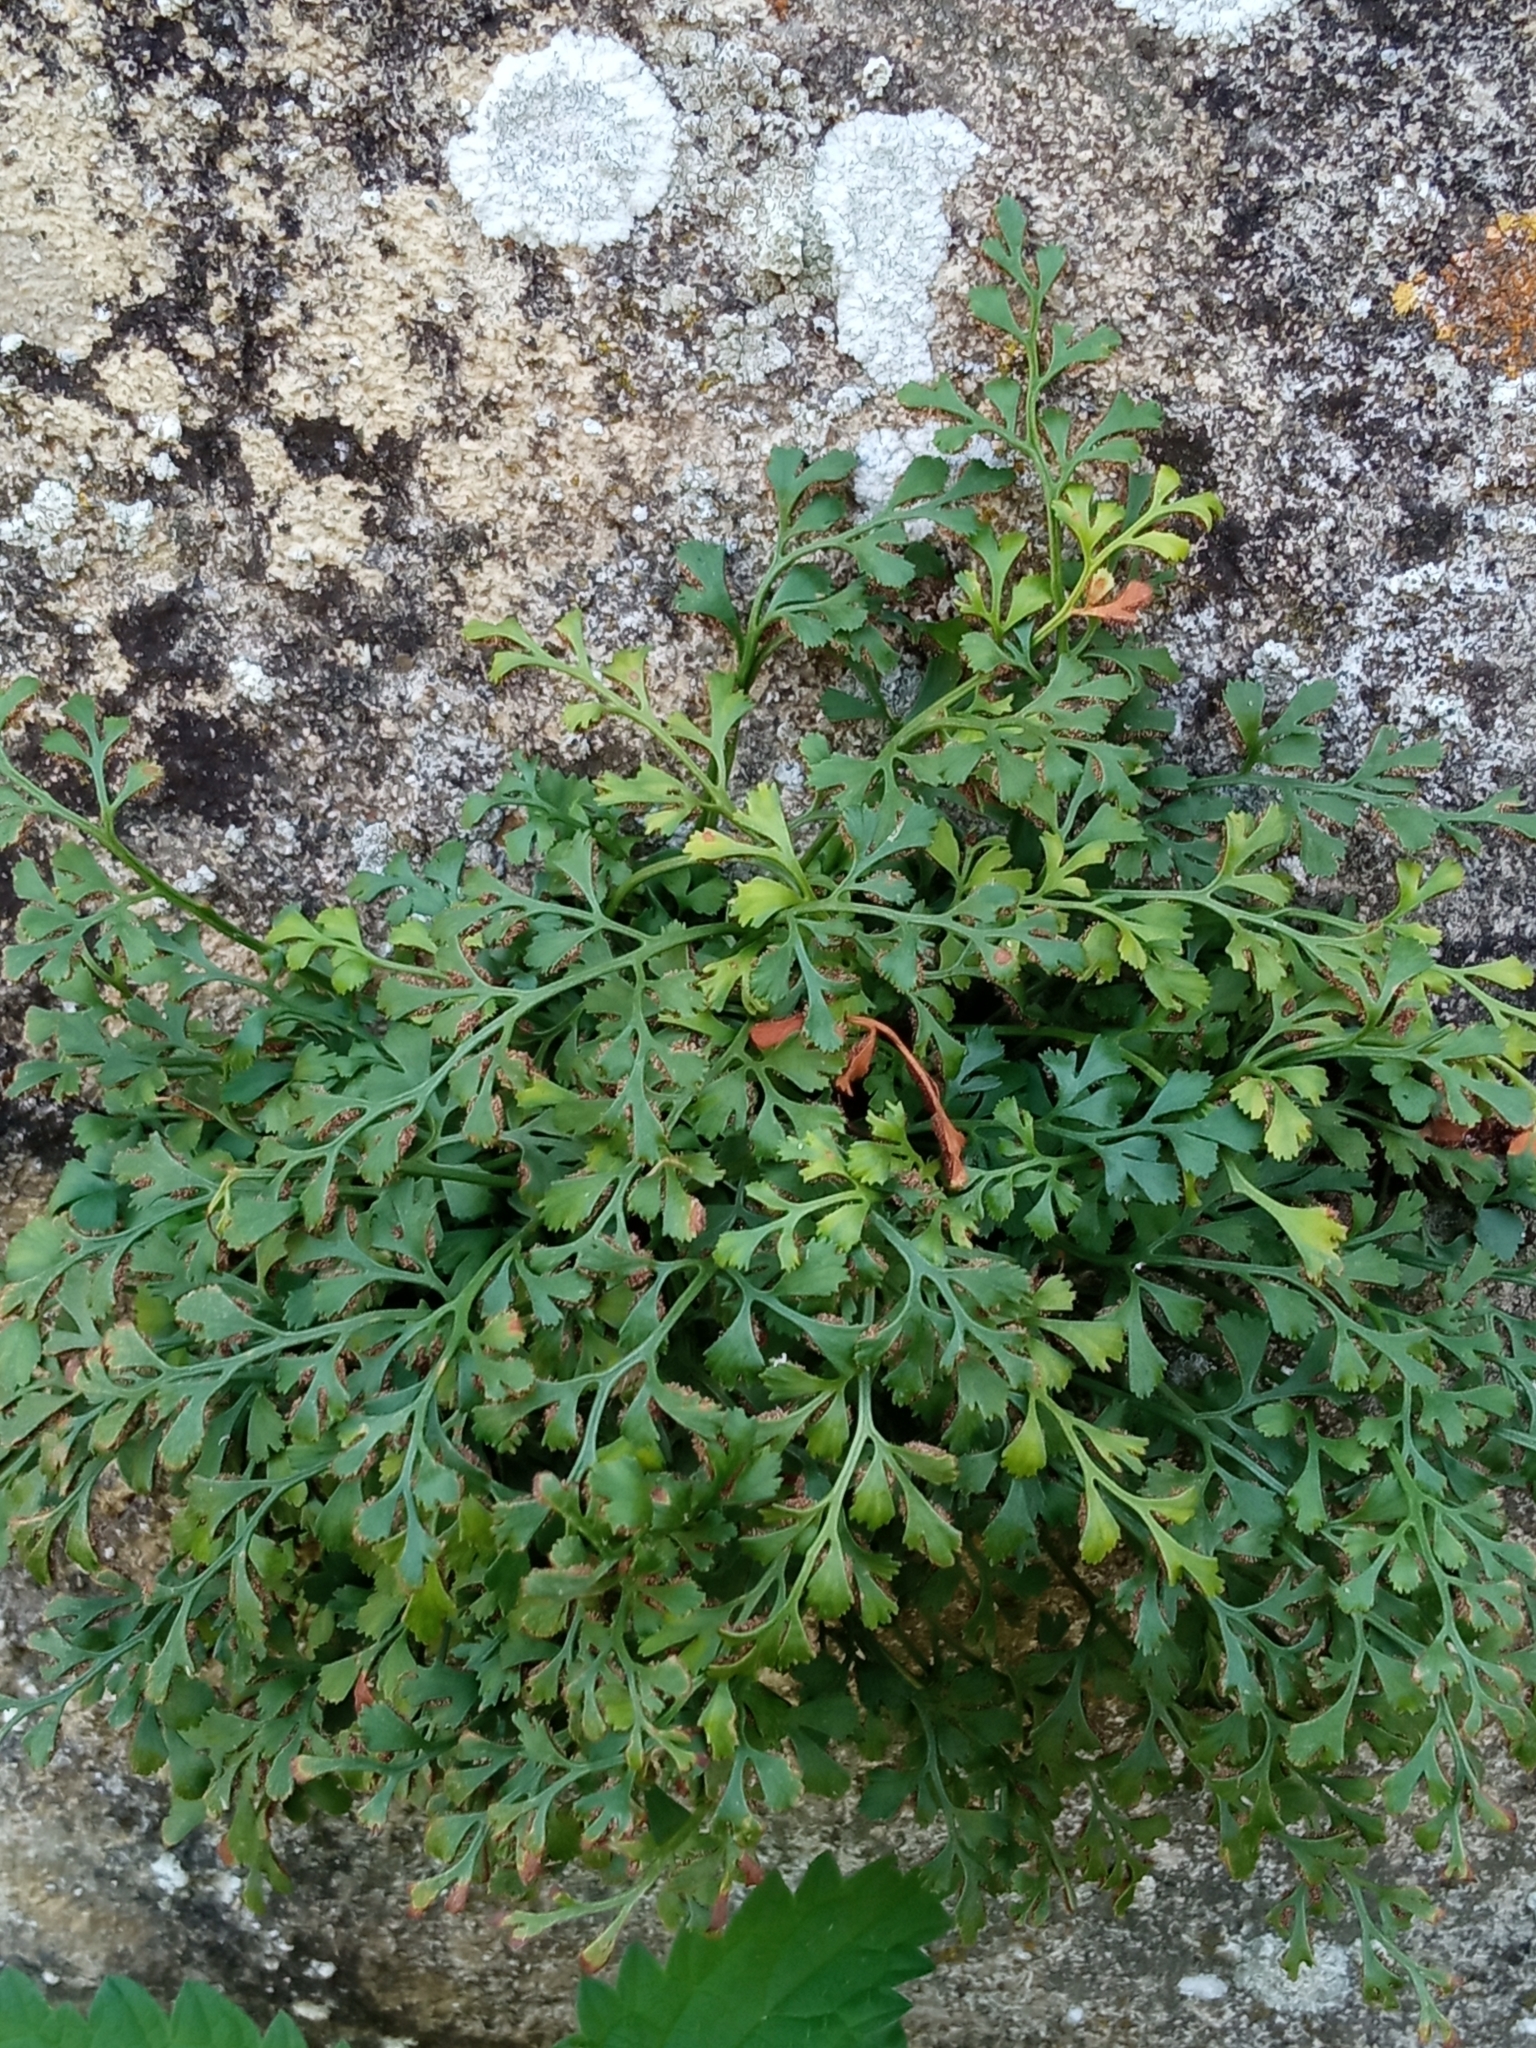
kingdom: Plantae
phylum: Tracheophyta
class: Polypodiopsida
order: Polypodiales
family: Aspleniaceae
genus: Asplenium
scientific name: Asplenium ruta-muraria
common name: Wall-rue
